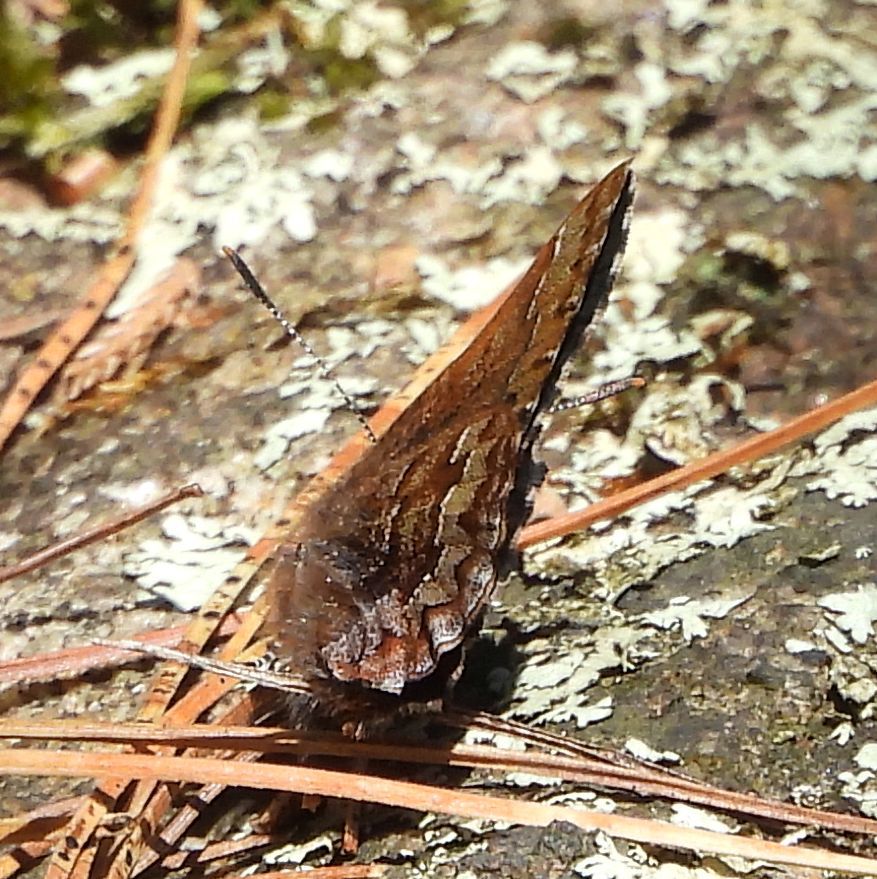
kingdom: Animalia
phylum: Arthropoda
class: Insecta
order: Lepidoptera
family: Lycaenidae
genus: Incisalia
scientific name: Incisalia niphon
